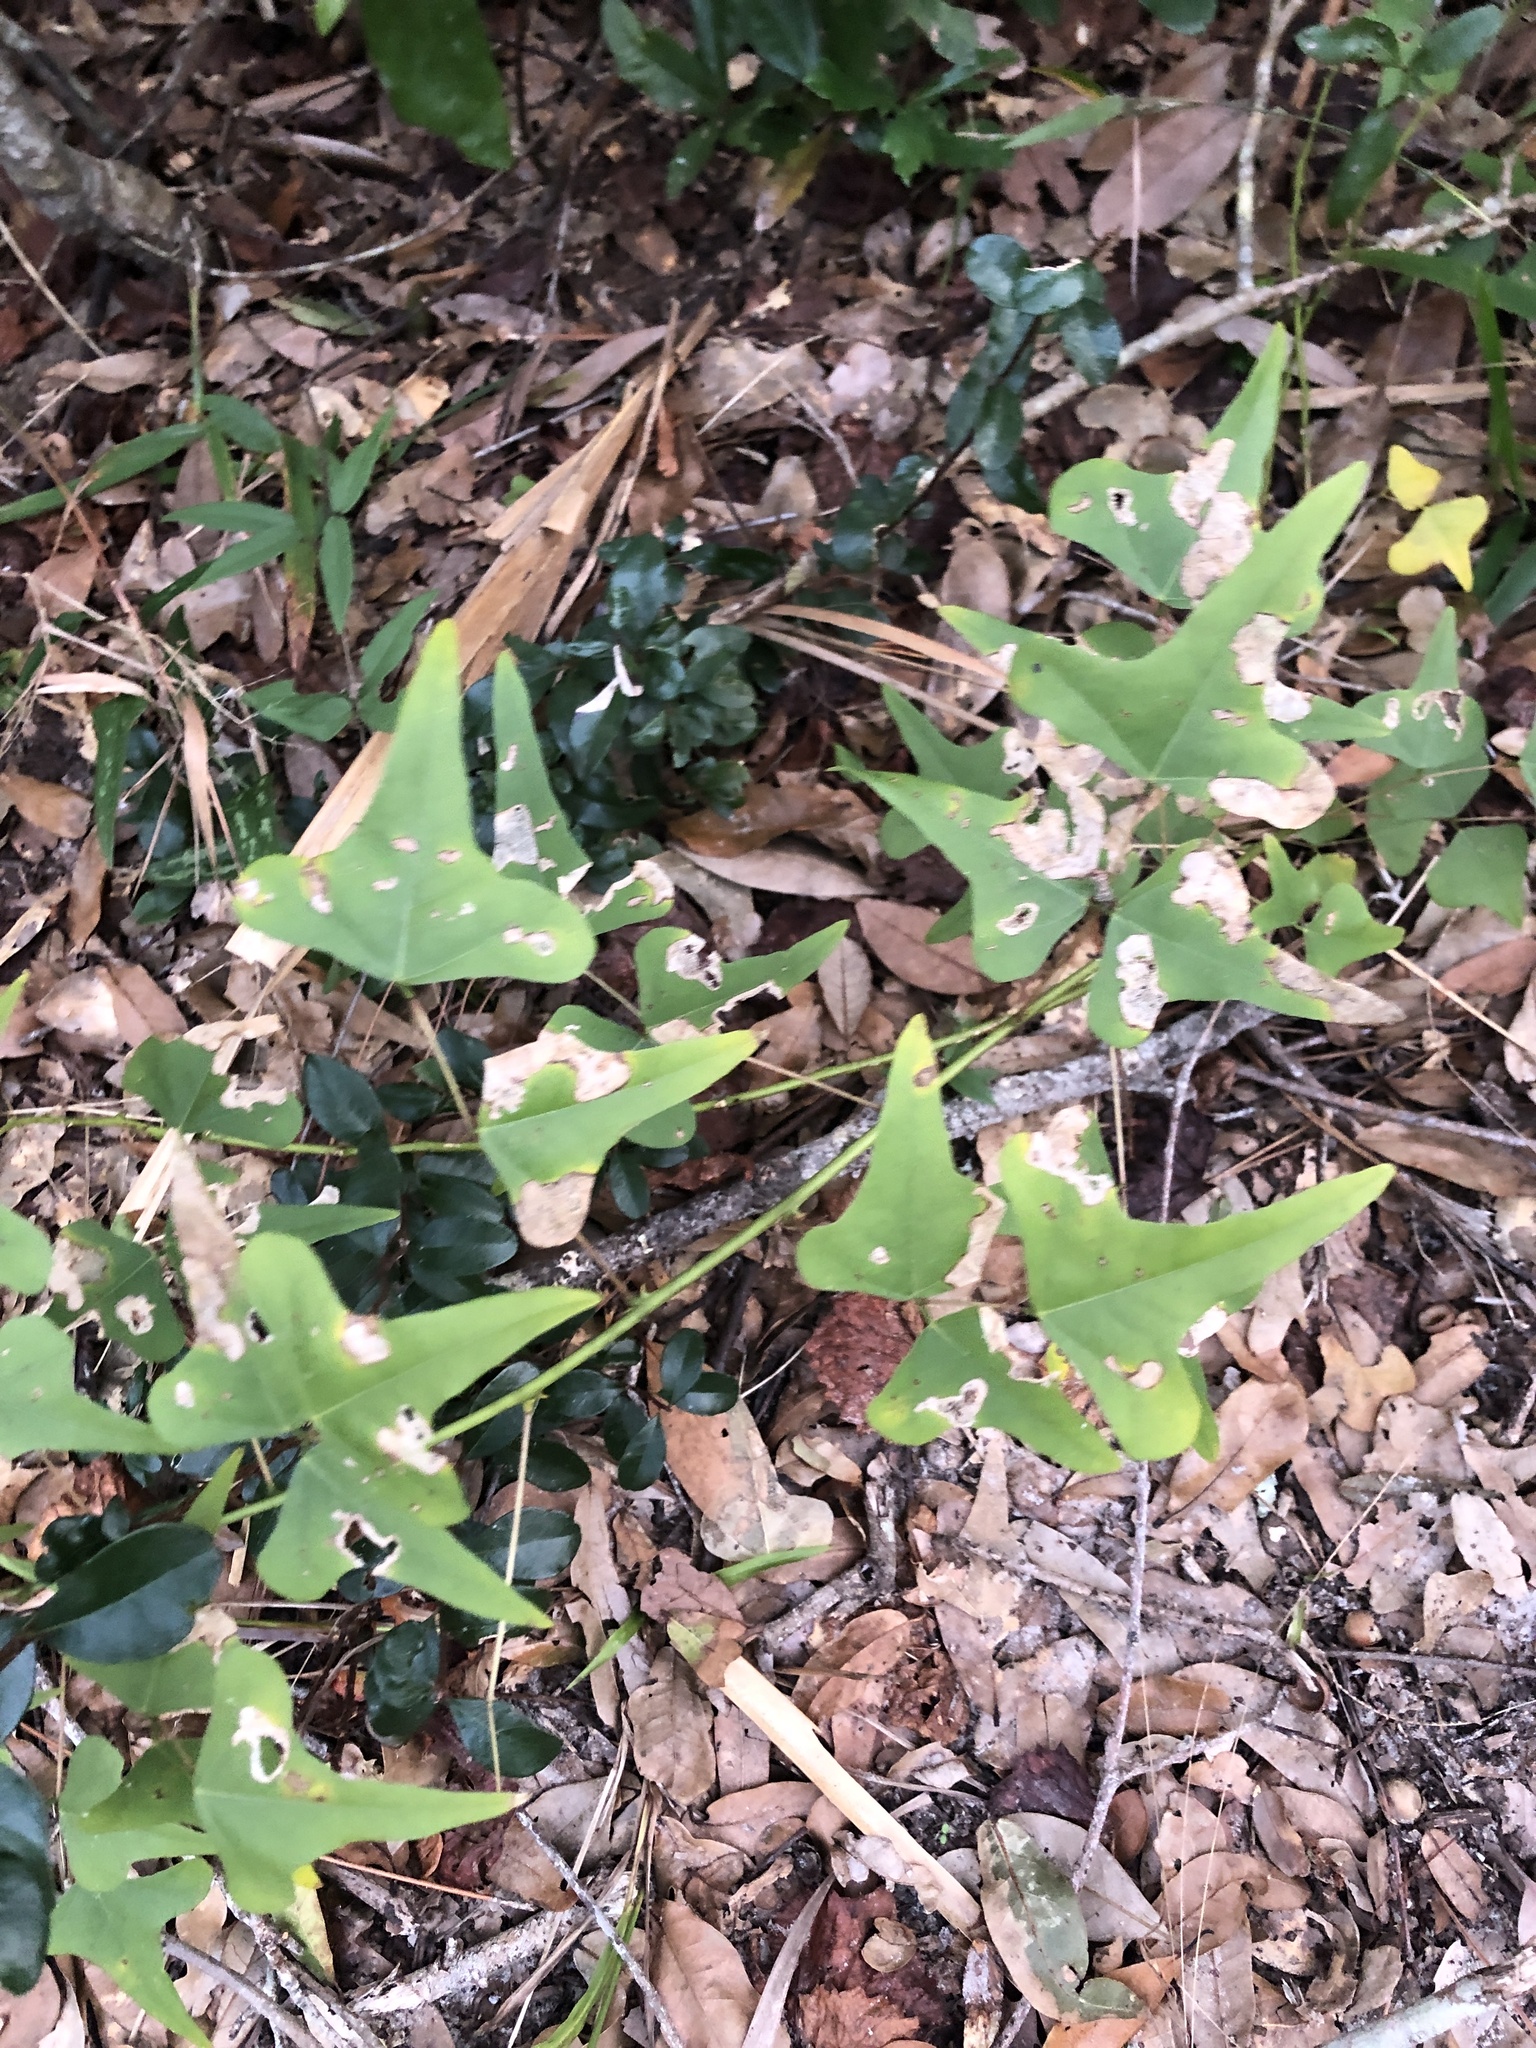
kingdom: Plantae
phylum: Tracheophyta
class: Magnoliopsida
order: Fabales
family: Fabaceae
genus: Erythrina
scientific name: Erythrina herbacea
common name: Coral-bean
